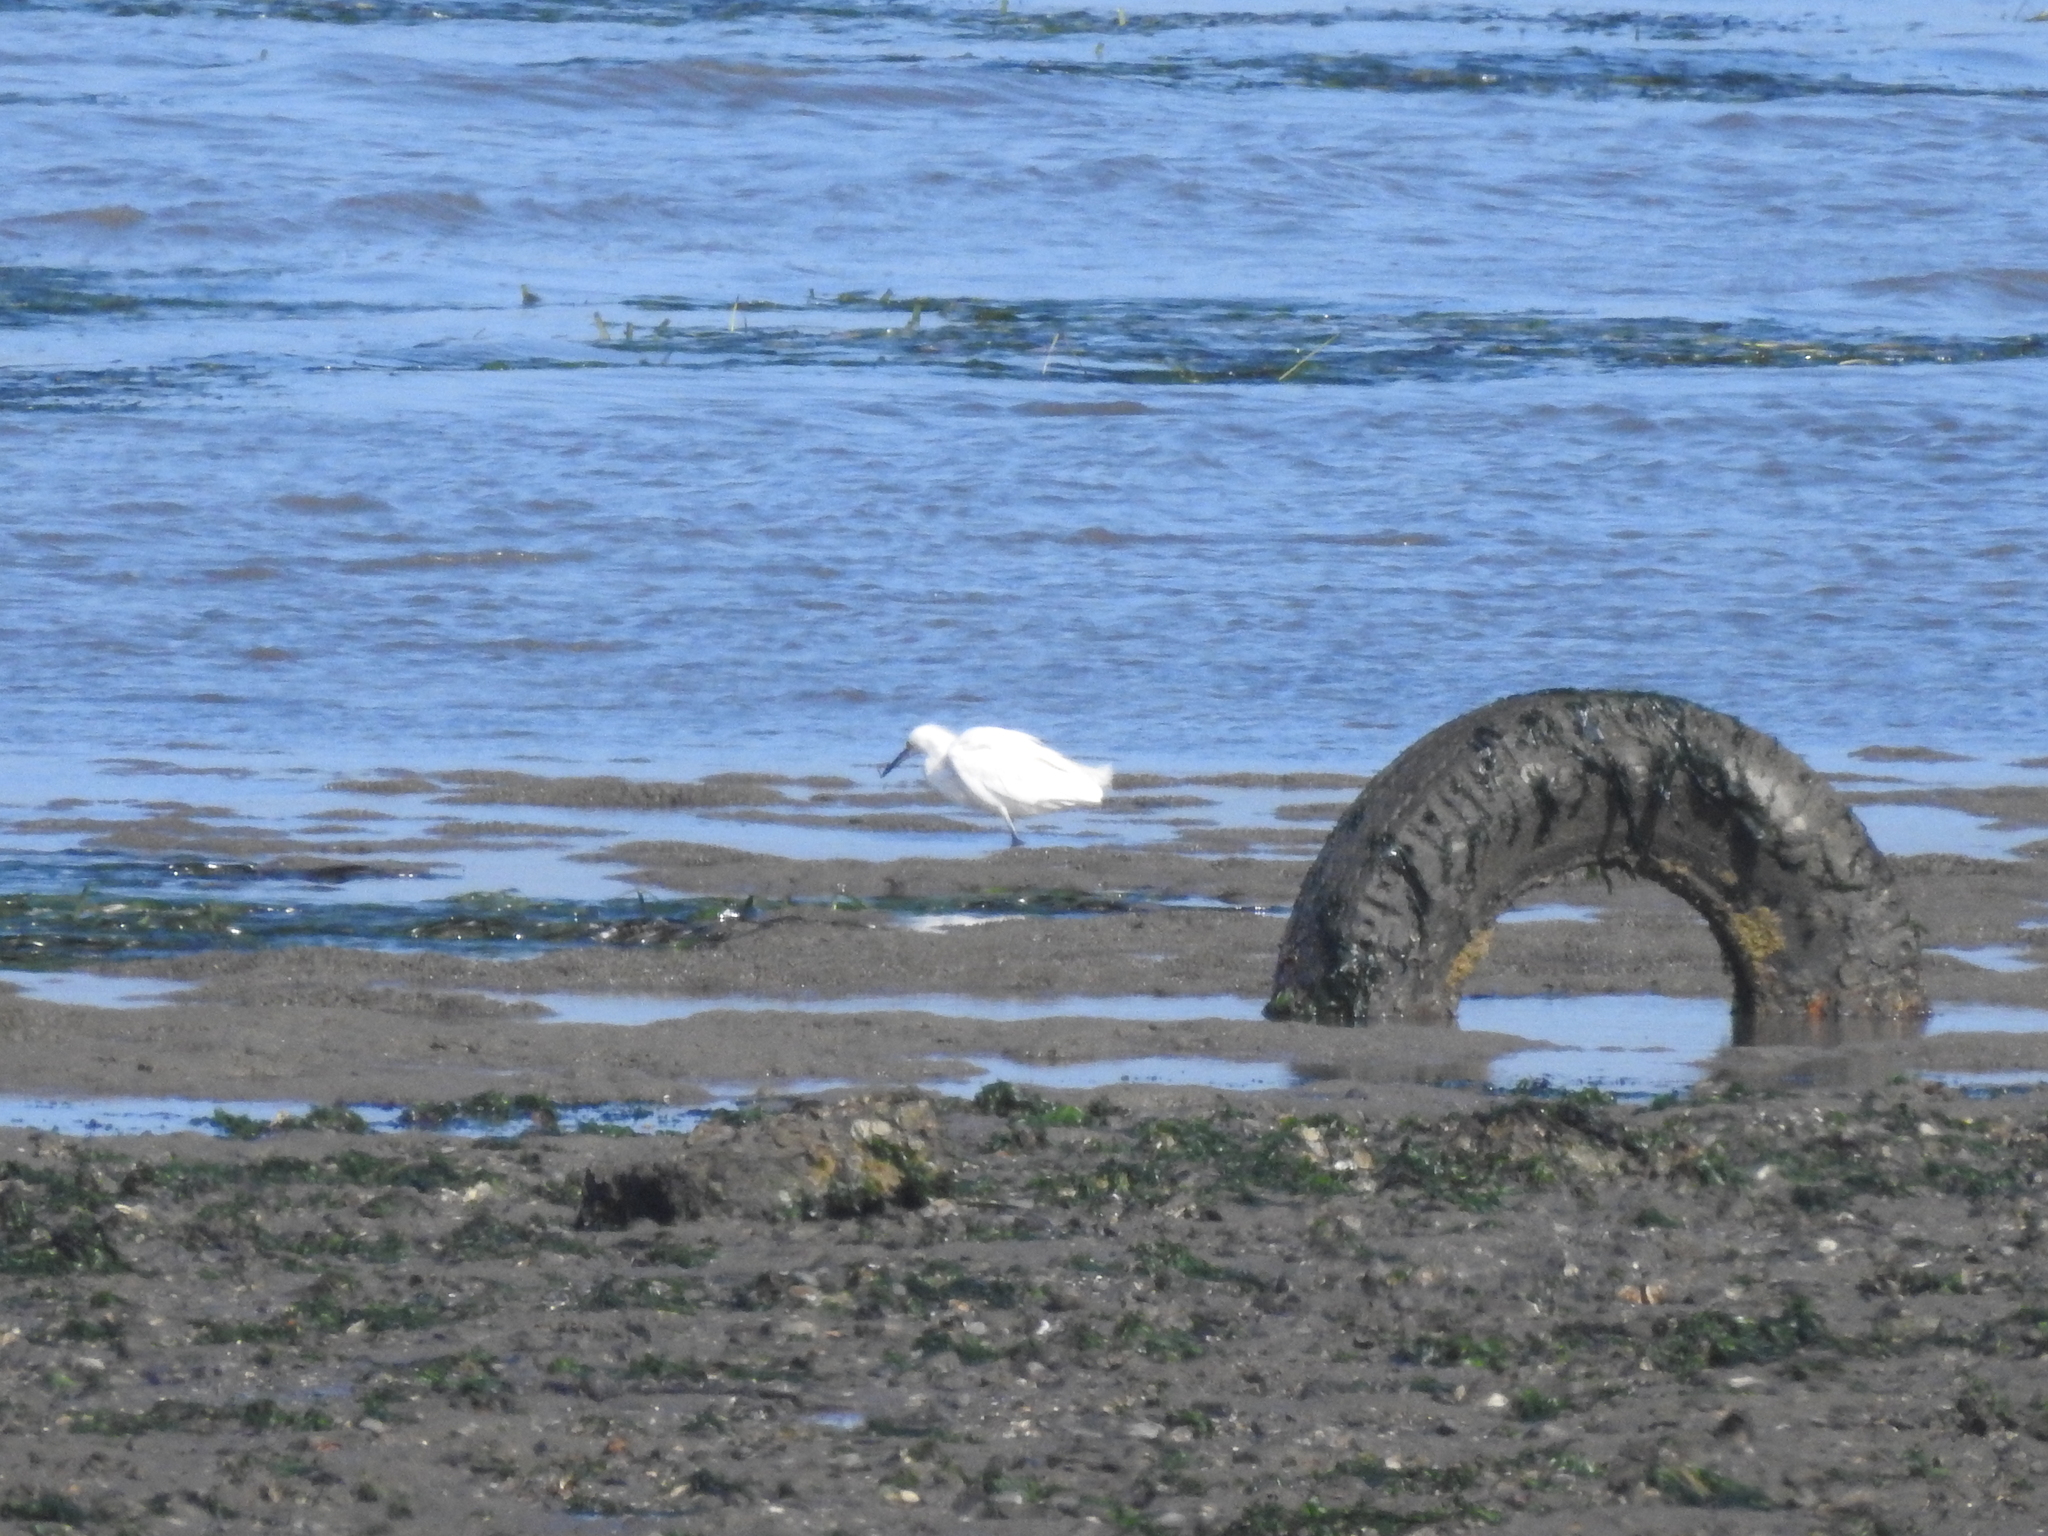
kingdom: Animalia
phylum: Chordata
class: Aves
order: Pelecaniformes
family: Ardeidae
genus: Egretta
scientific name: Egretta thula
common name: Snowy egret
